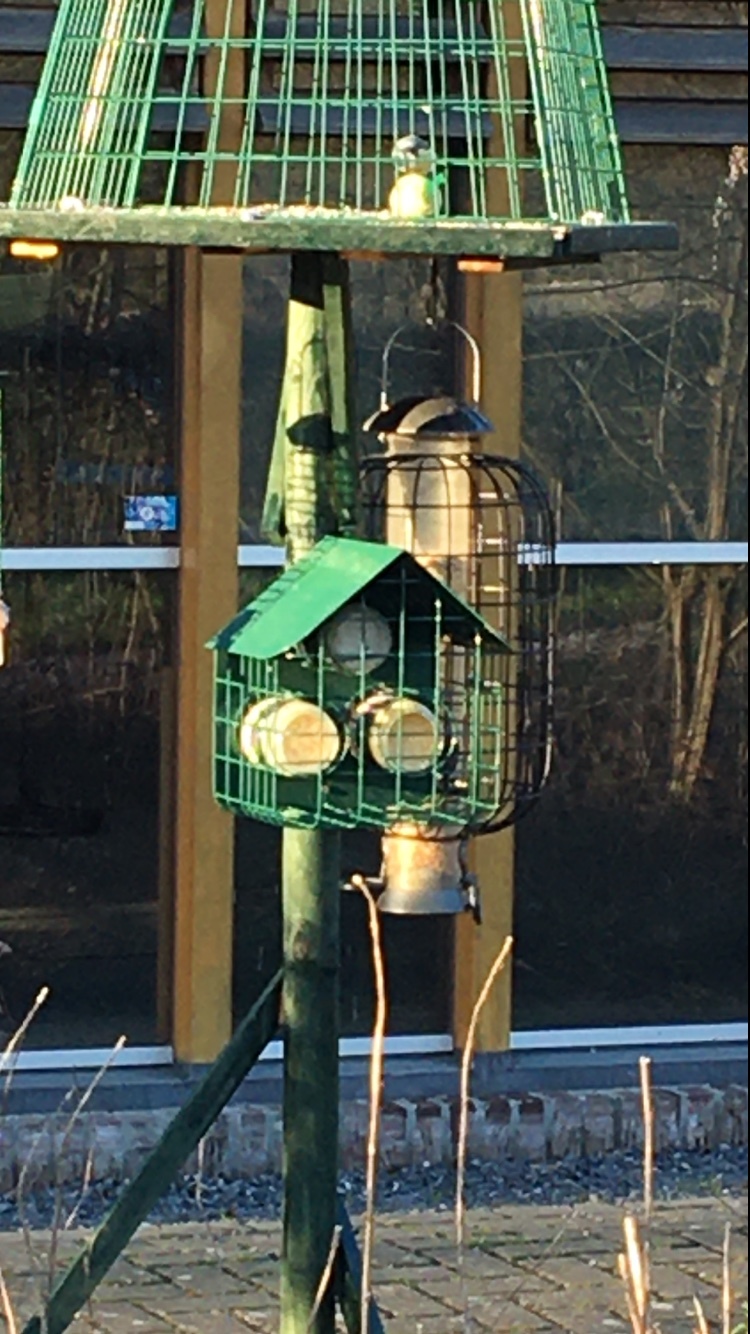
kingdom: Animalia
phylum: Chordata
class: Aves
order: Passeriformes
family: Paridae
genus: Cyanistes
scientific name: Cyanistes caeruleus
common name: Eurasian blue tit
